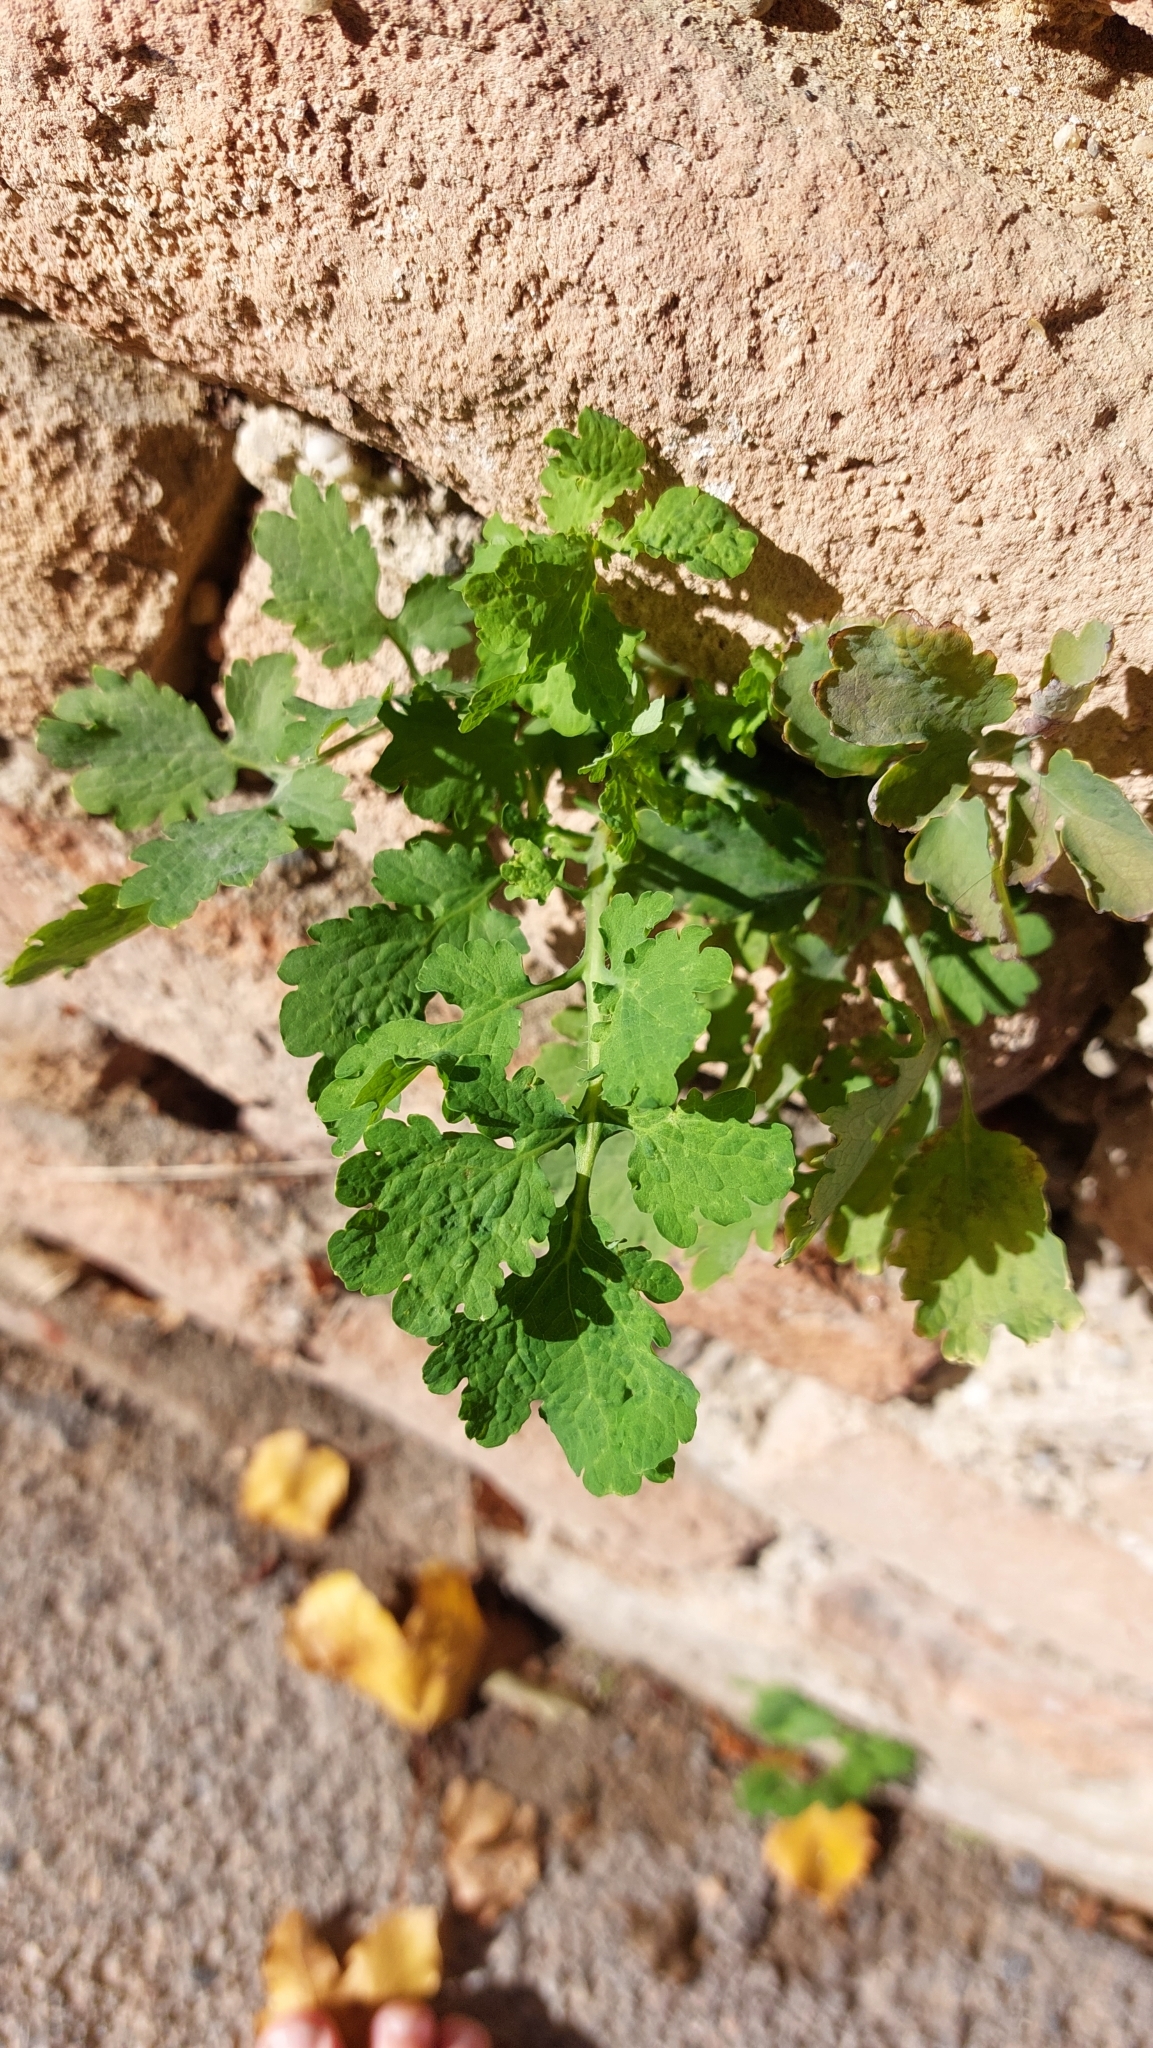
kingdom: Plantae
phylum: Tracheophyta
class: Magnoliopsida
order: Ranunculales
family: Papaveraceae
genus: Chelidonium
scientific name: Chelidonium majus
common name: Greater celandine
